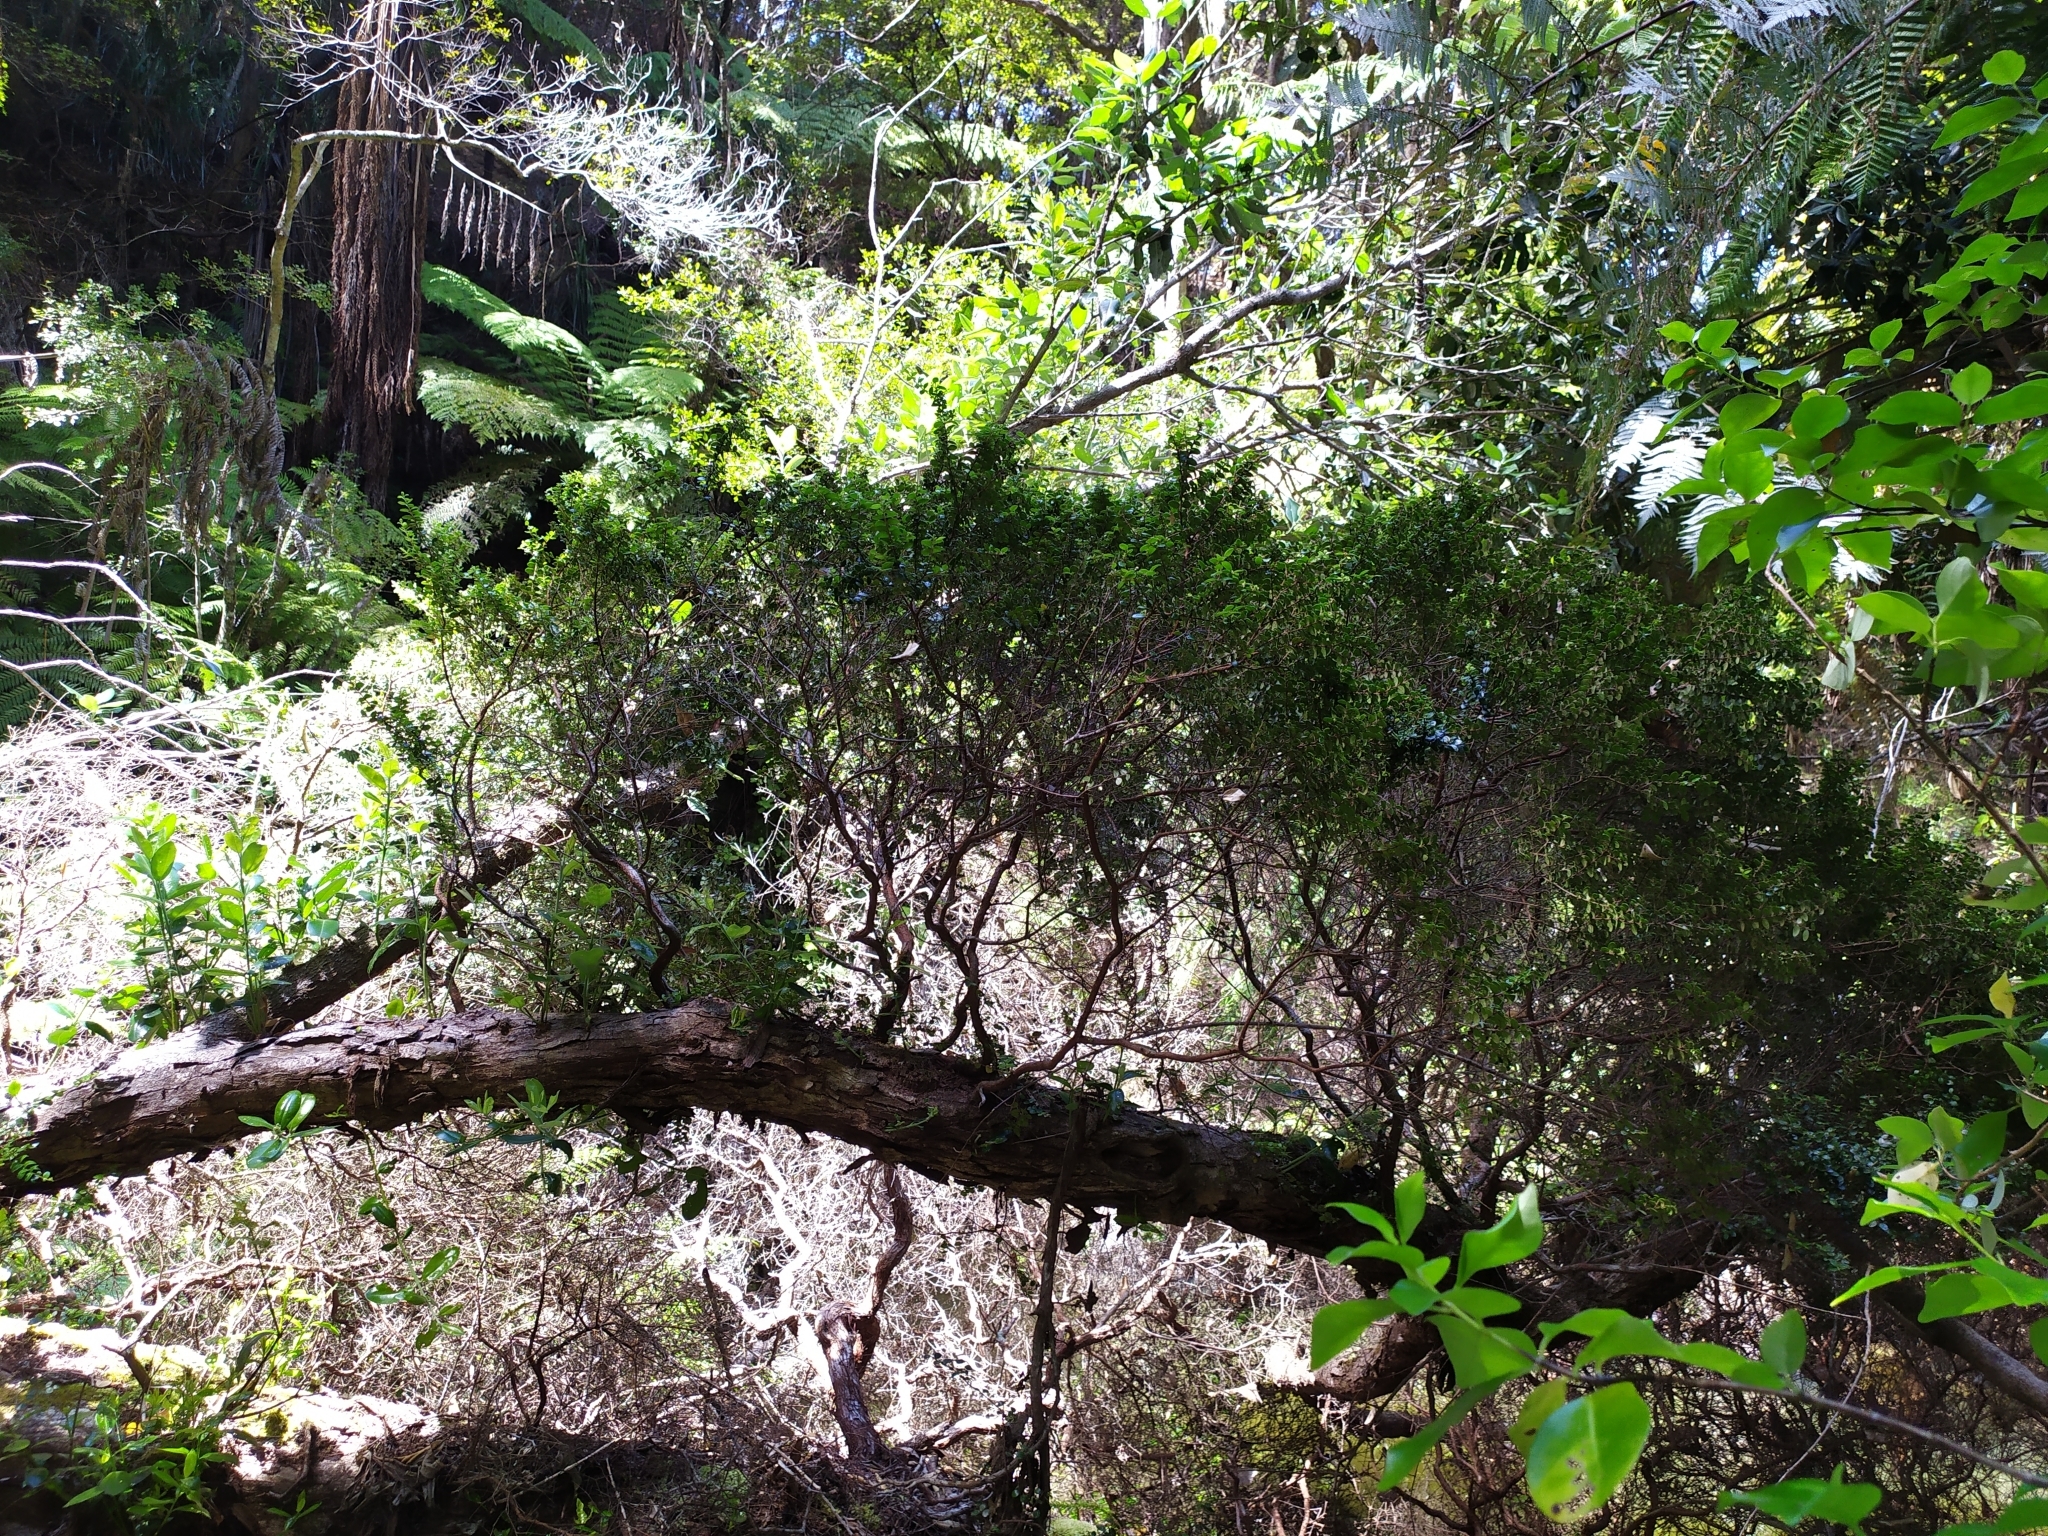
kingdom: Plantae
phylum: Tracheophyta
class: Magnoliopsida
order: Myrtales
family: Myrtaceae
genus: Metrosideros
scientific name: Metrosideros perforata
